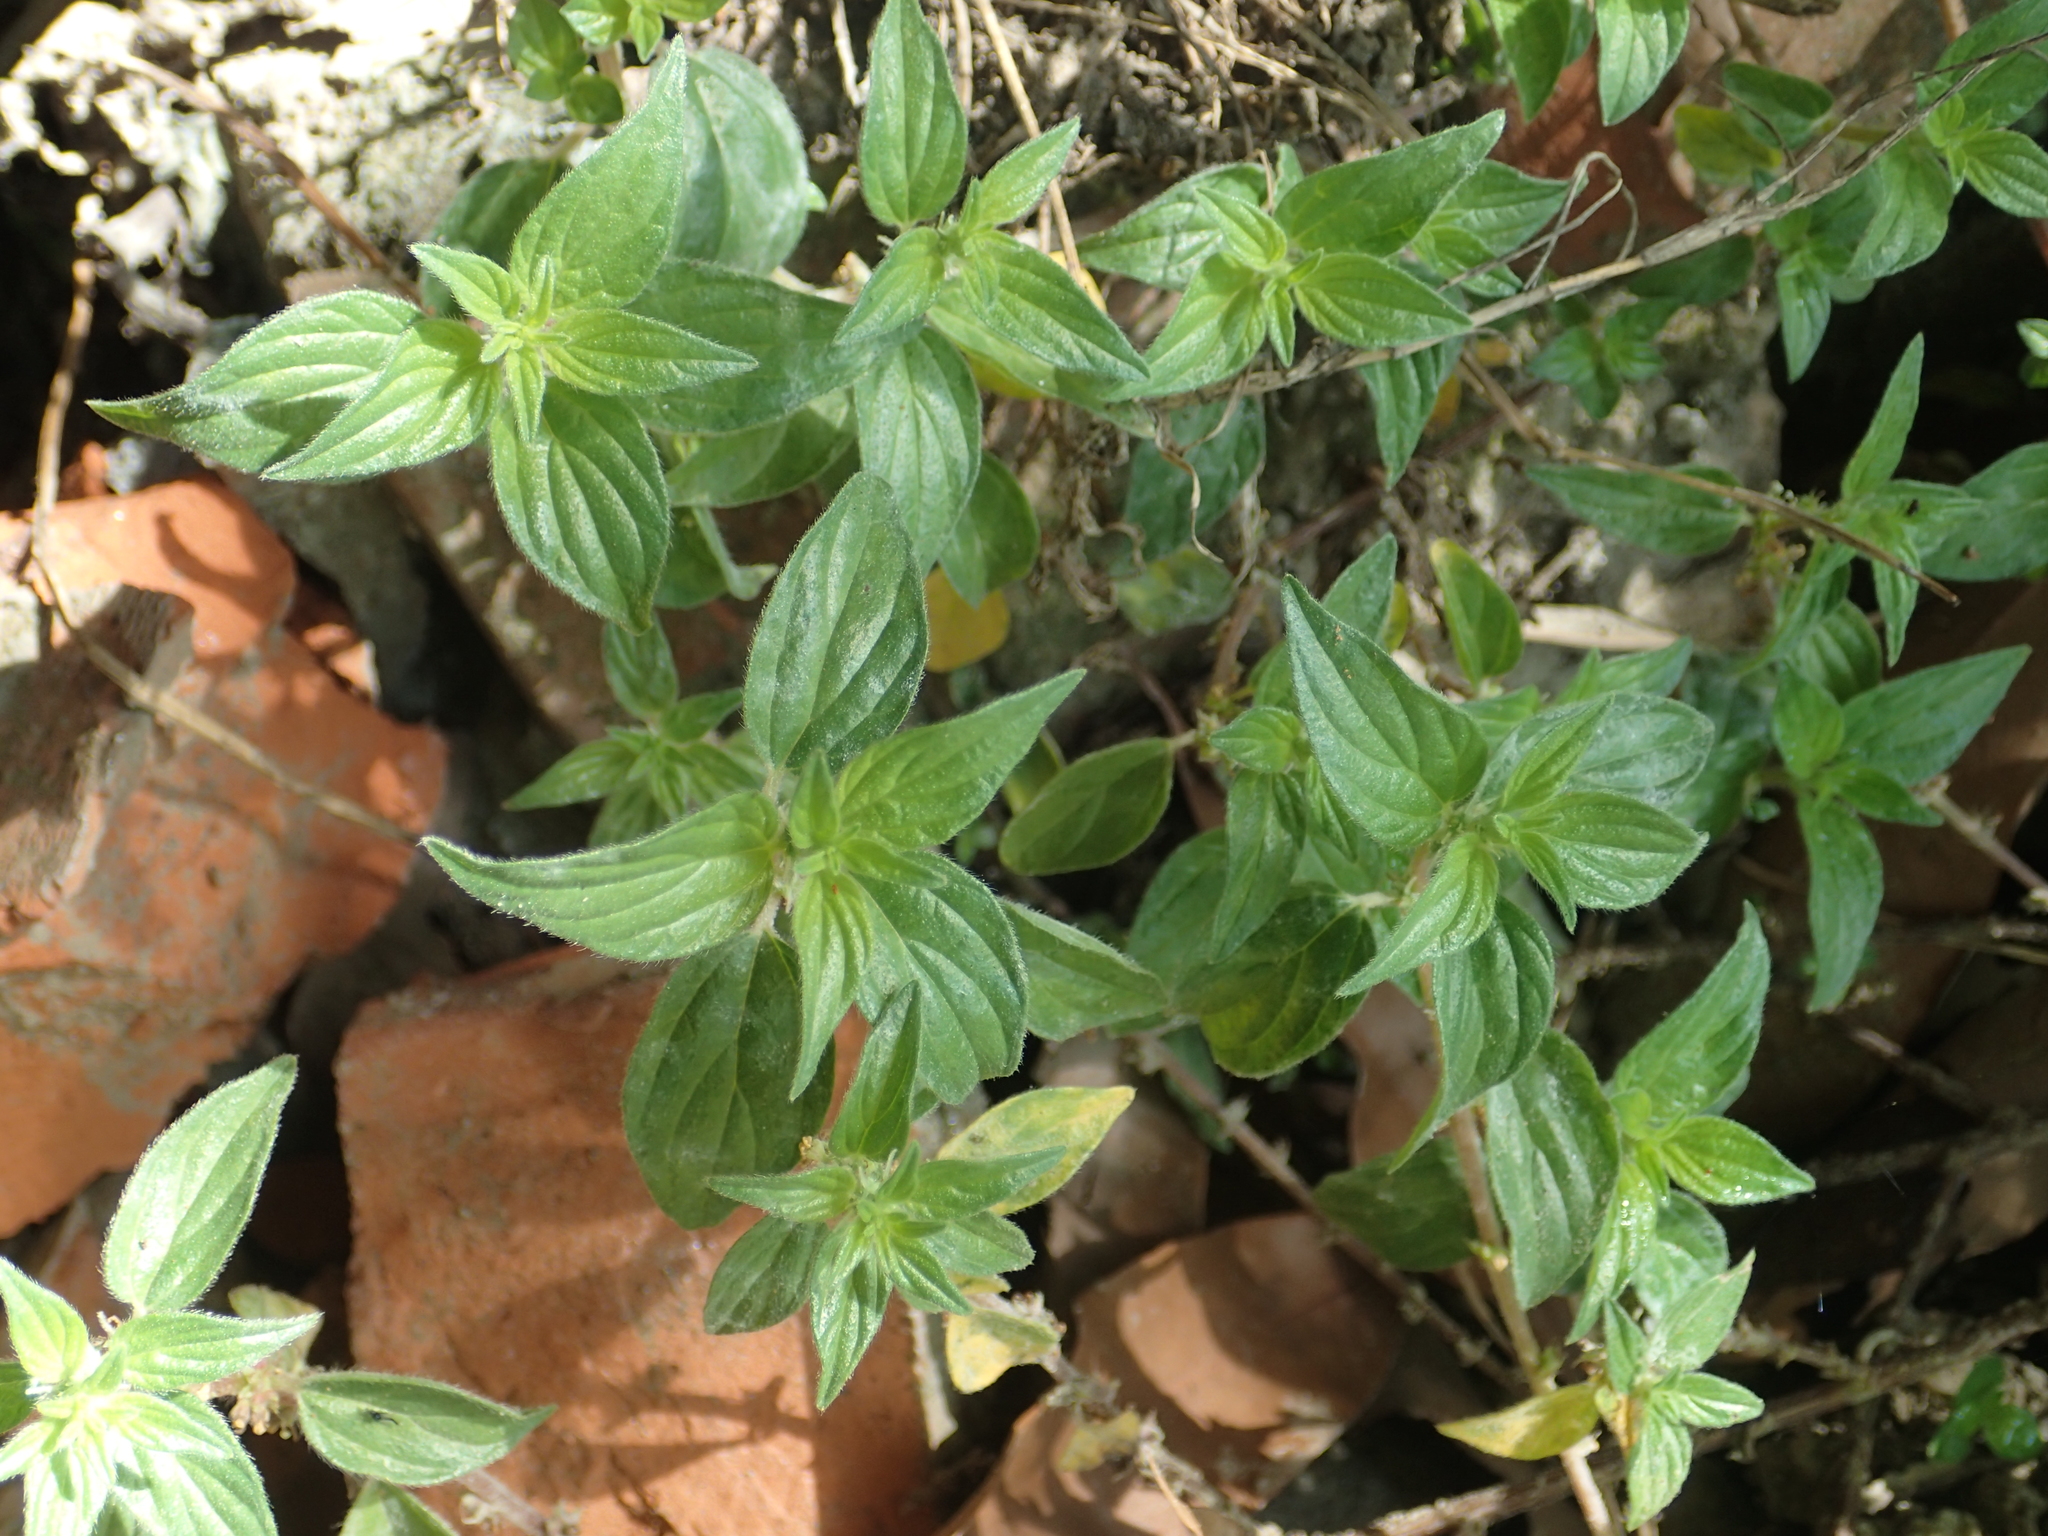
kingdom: Plantae
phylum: Tracheophyta
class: Magnoliopsida
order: Rosales
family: Urticaceae
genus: Pouzolzia
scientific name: Pouzolzia zeylanica
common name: Graceful pouzolzsbush
